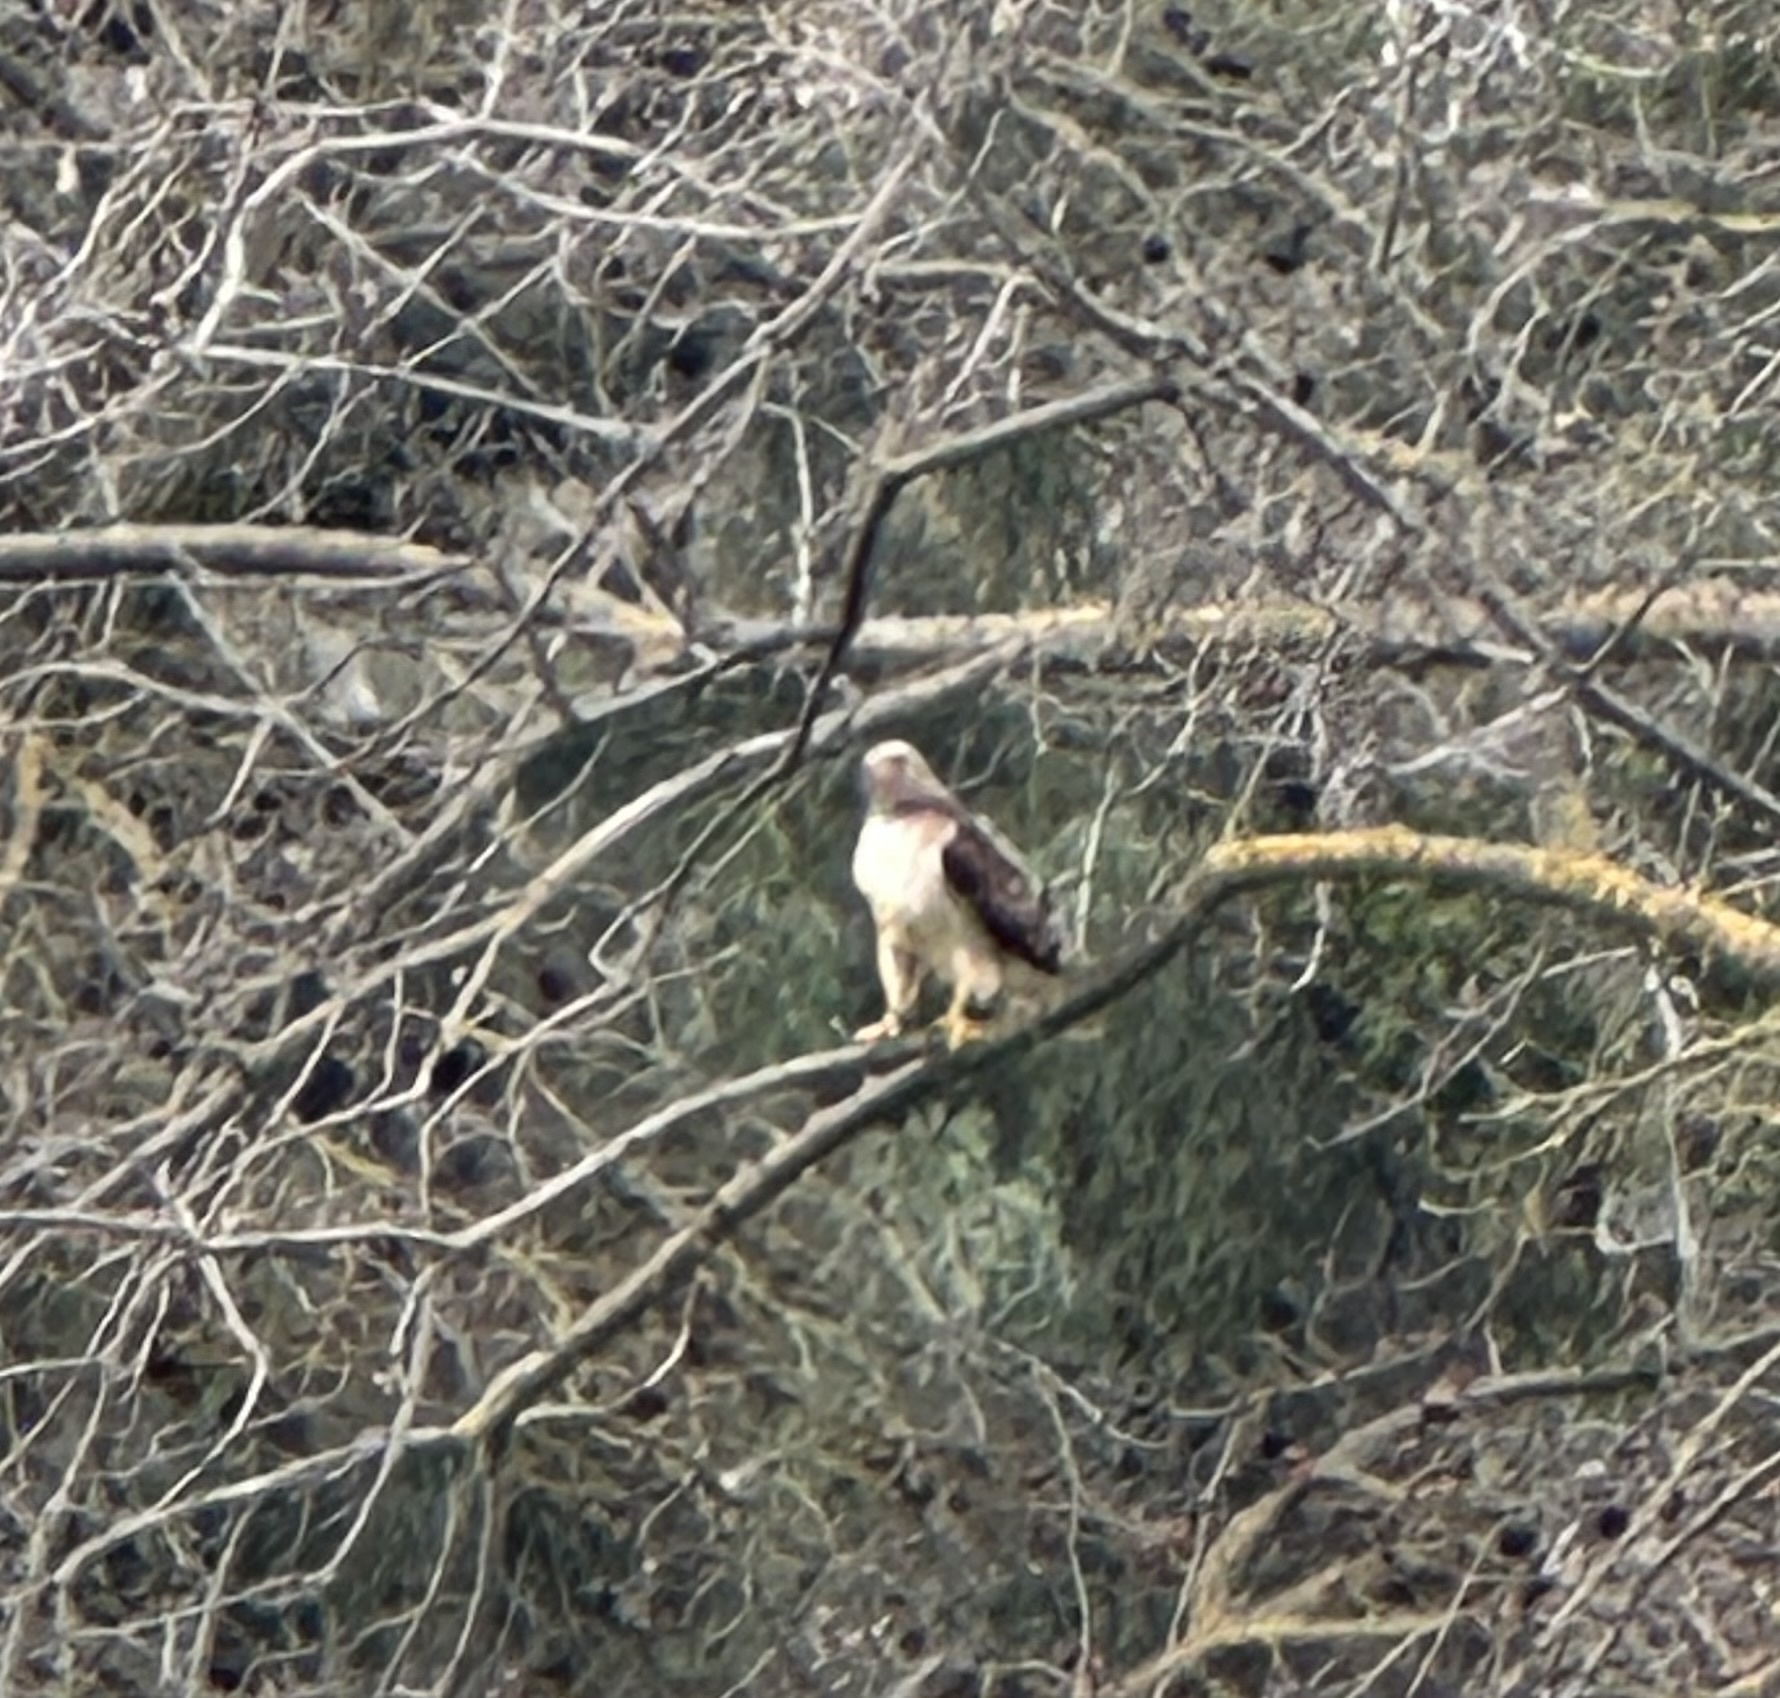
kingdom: Animalia
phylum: Chordata
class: Aves
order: Accipitriformes
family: Accipitridae
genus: Buteo
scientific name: Buteo jamaicensis
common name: Red-tailed hawk
